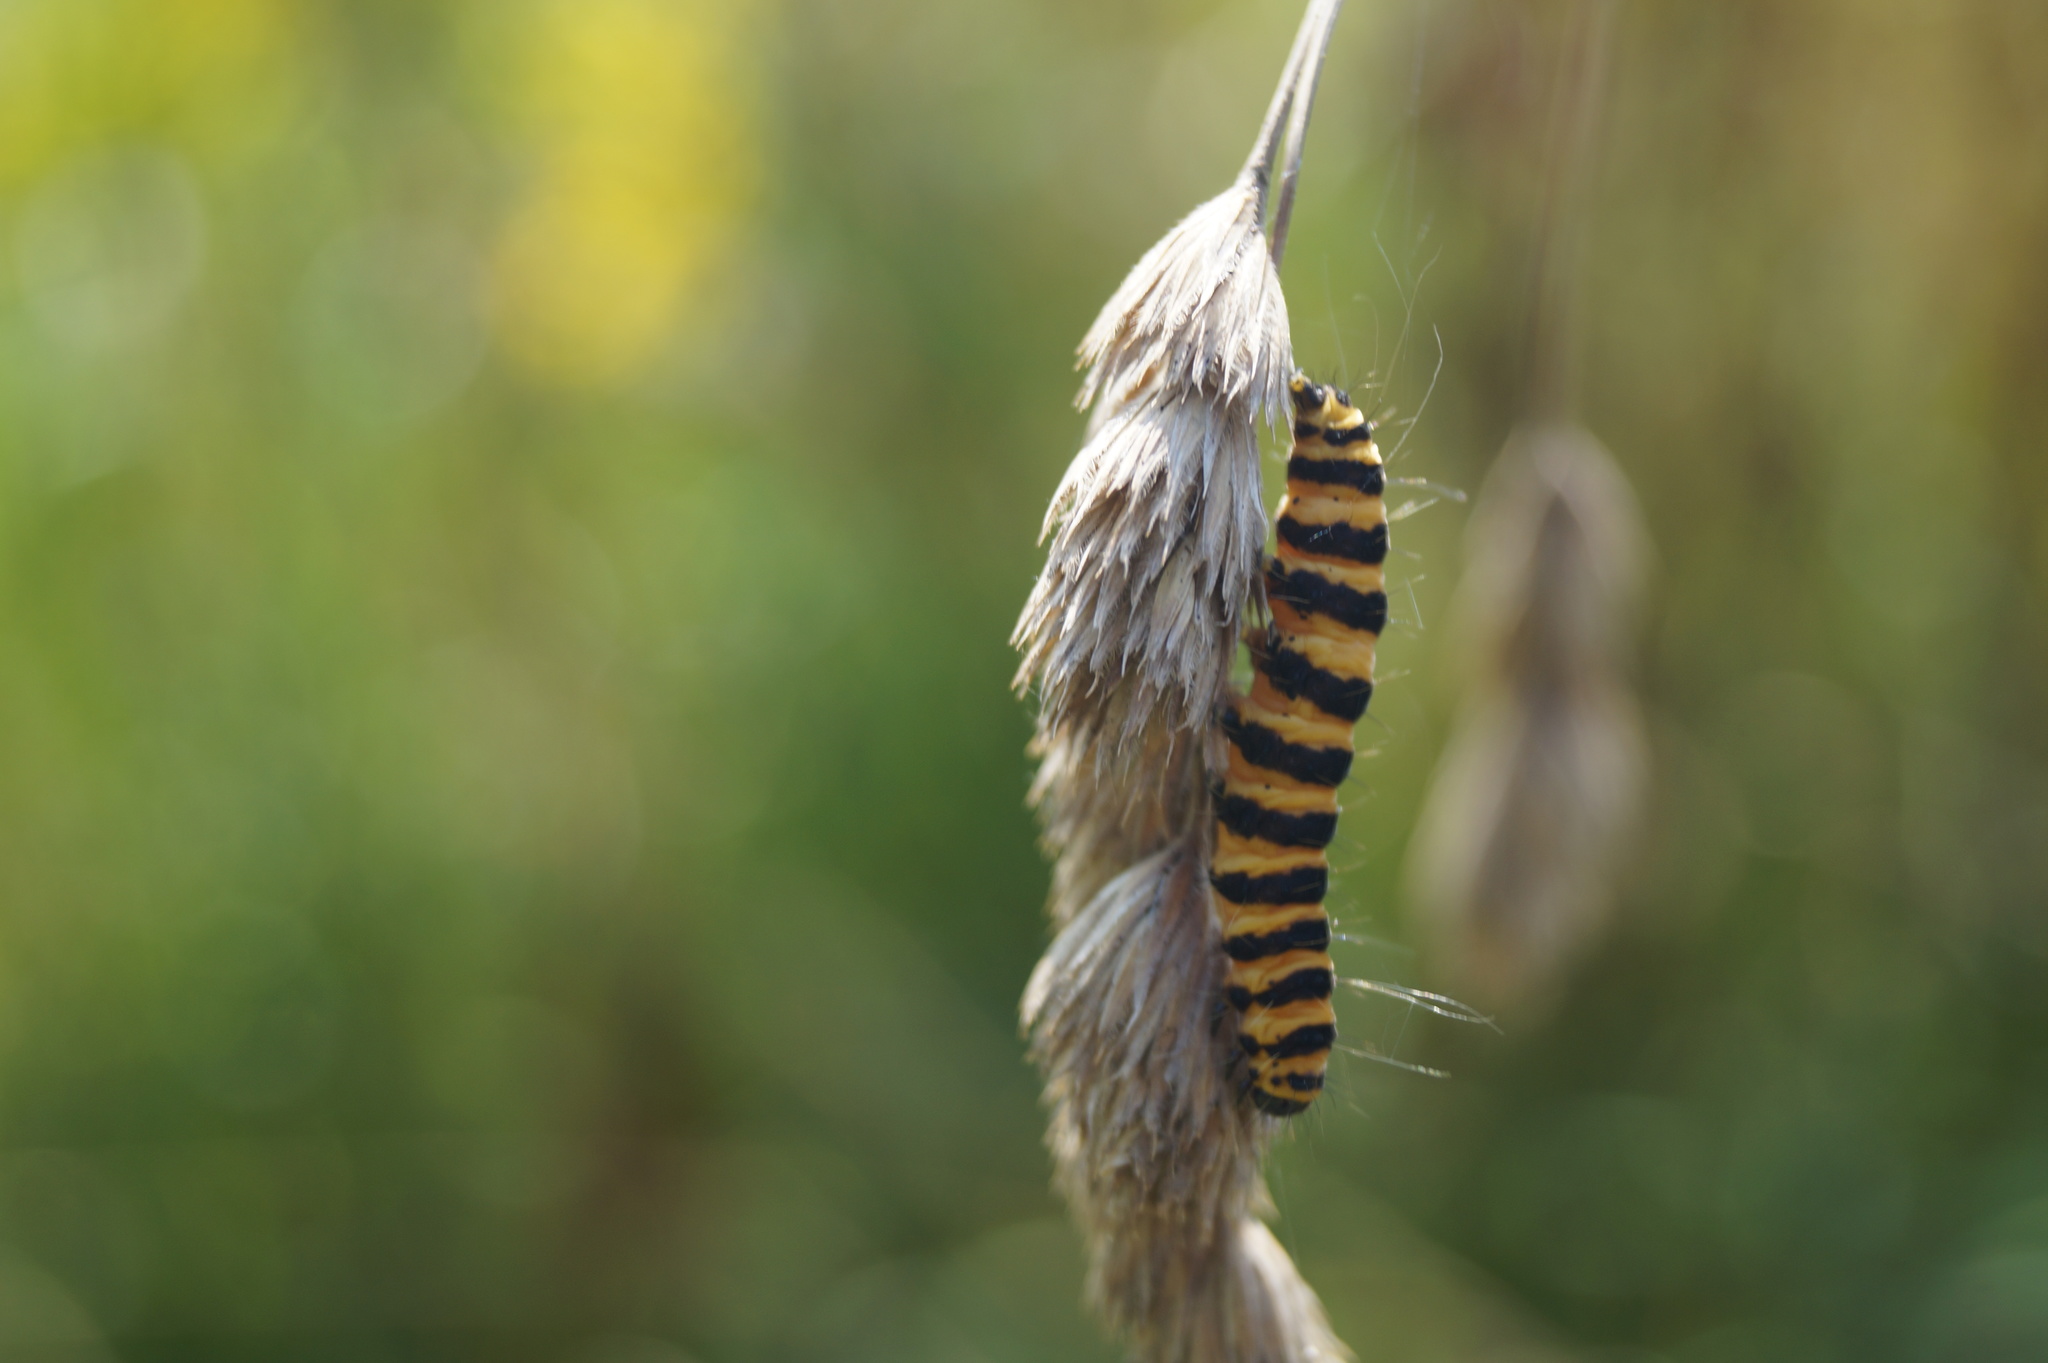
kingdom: Animalia
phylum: Arthropoda
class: Insecta
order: Lepidoptera
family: Erebidae
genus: Tyria
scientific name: Tyria jacobaeae
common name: Cinnabar
